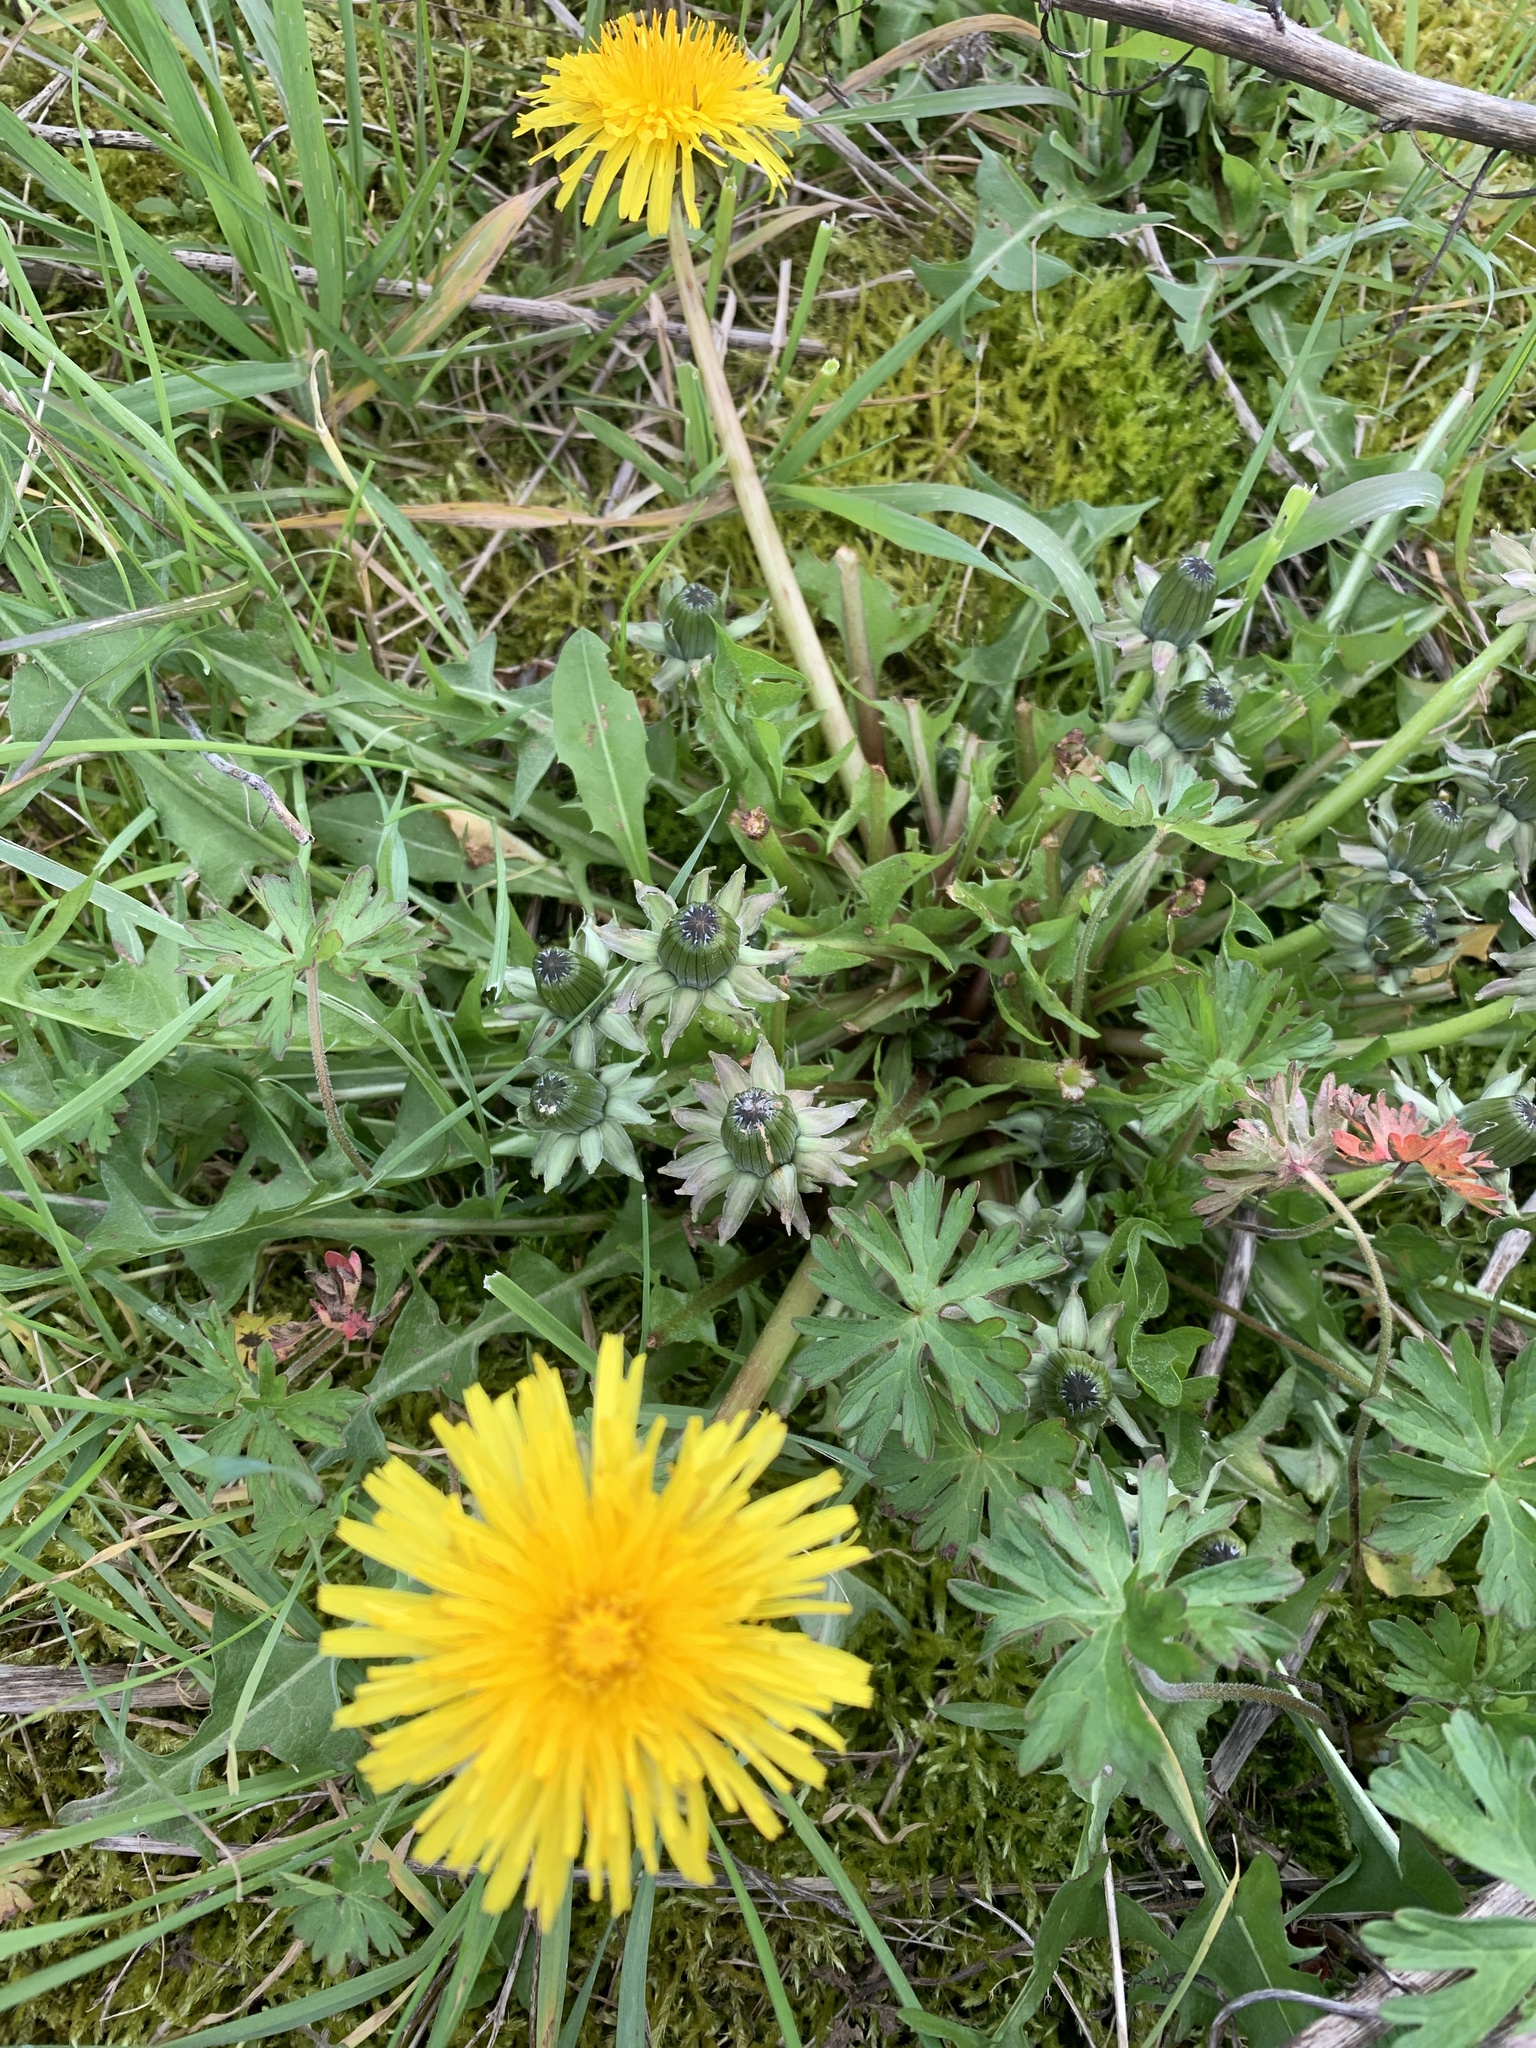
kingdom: Plantae
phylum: Tracheophyta
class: Magnoliopsida
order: Asterales
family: Asteraceae
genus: Taraxacum
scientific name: Taraxacum officinale
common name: Common dandelion
